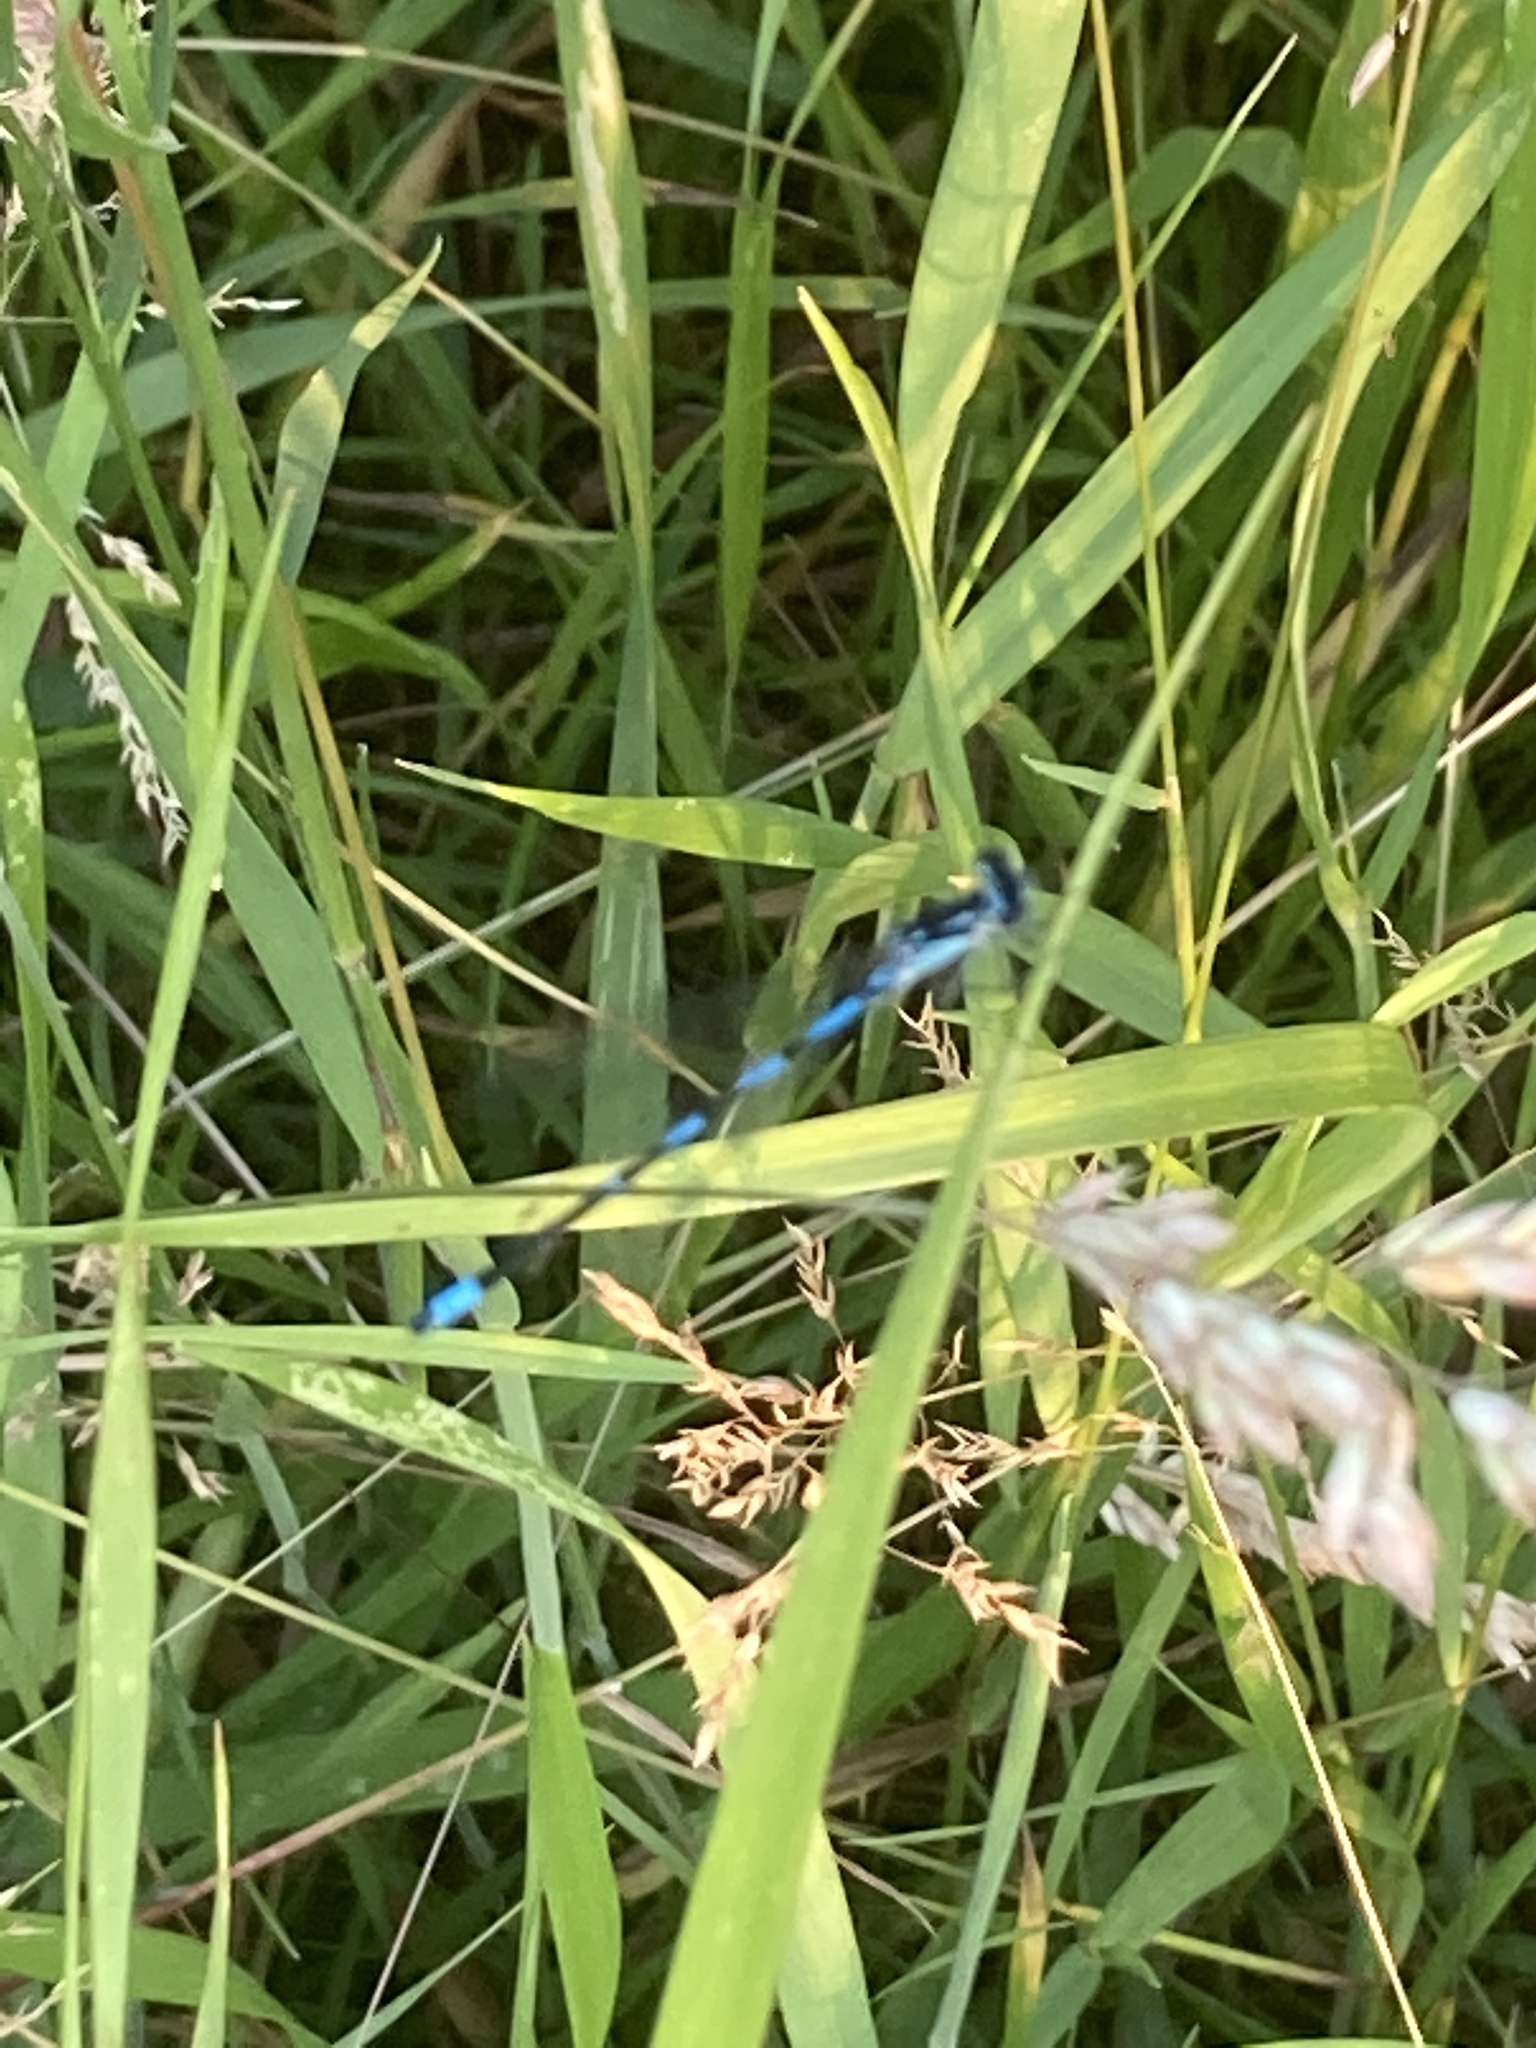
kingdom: Animalia
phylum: Arthropoda
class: Insecta
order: Odonata
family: Coenagrionidae
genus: Coenagrion
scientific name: Coenagrion pulchellum
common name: Variable bluet
